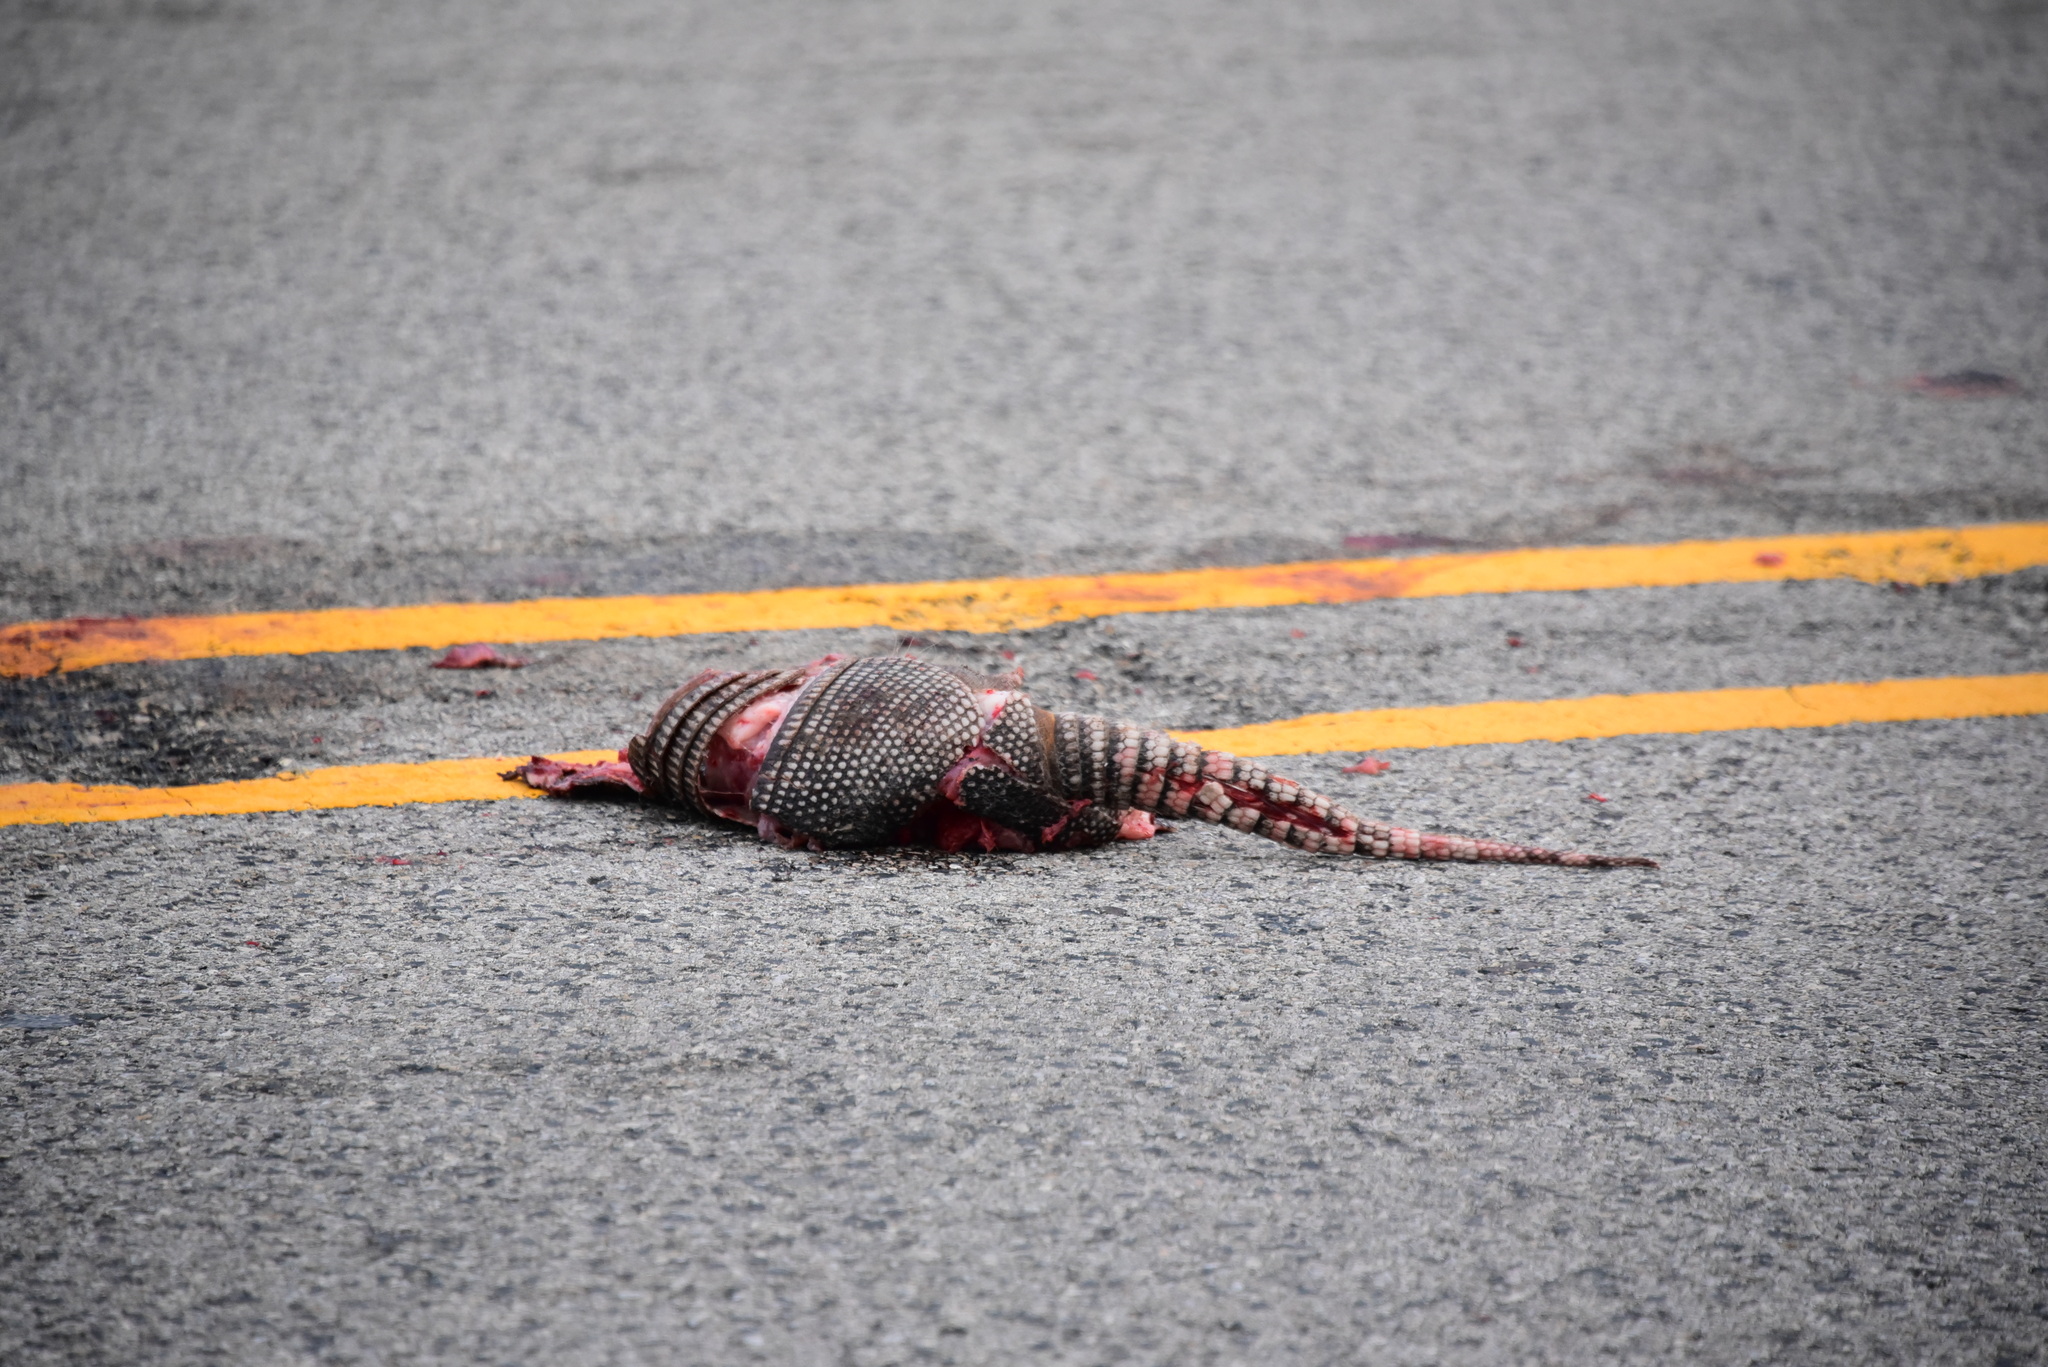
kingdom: Animalia
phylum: Chordata
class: Mammalia
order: Cingulata
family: Dasypodidae
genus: Dasypus
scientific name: Dasypus novemcinctus
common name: Nine-banded armadillo
